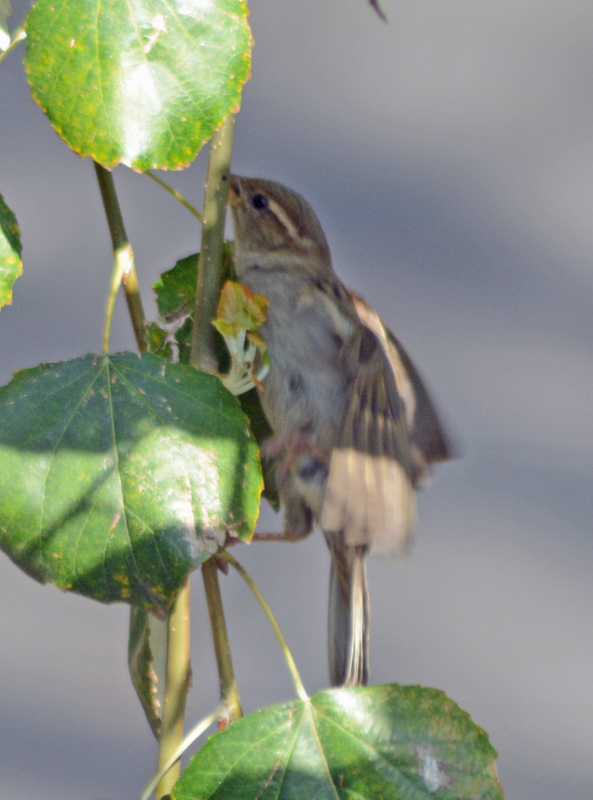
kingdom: Animalia
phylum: Chordata
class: Aves
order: Passeriformes
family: Passeridae
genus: Passer
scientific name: Passer domesticus
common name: House sparrow
